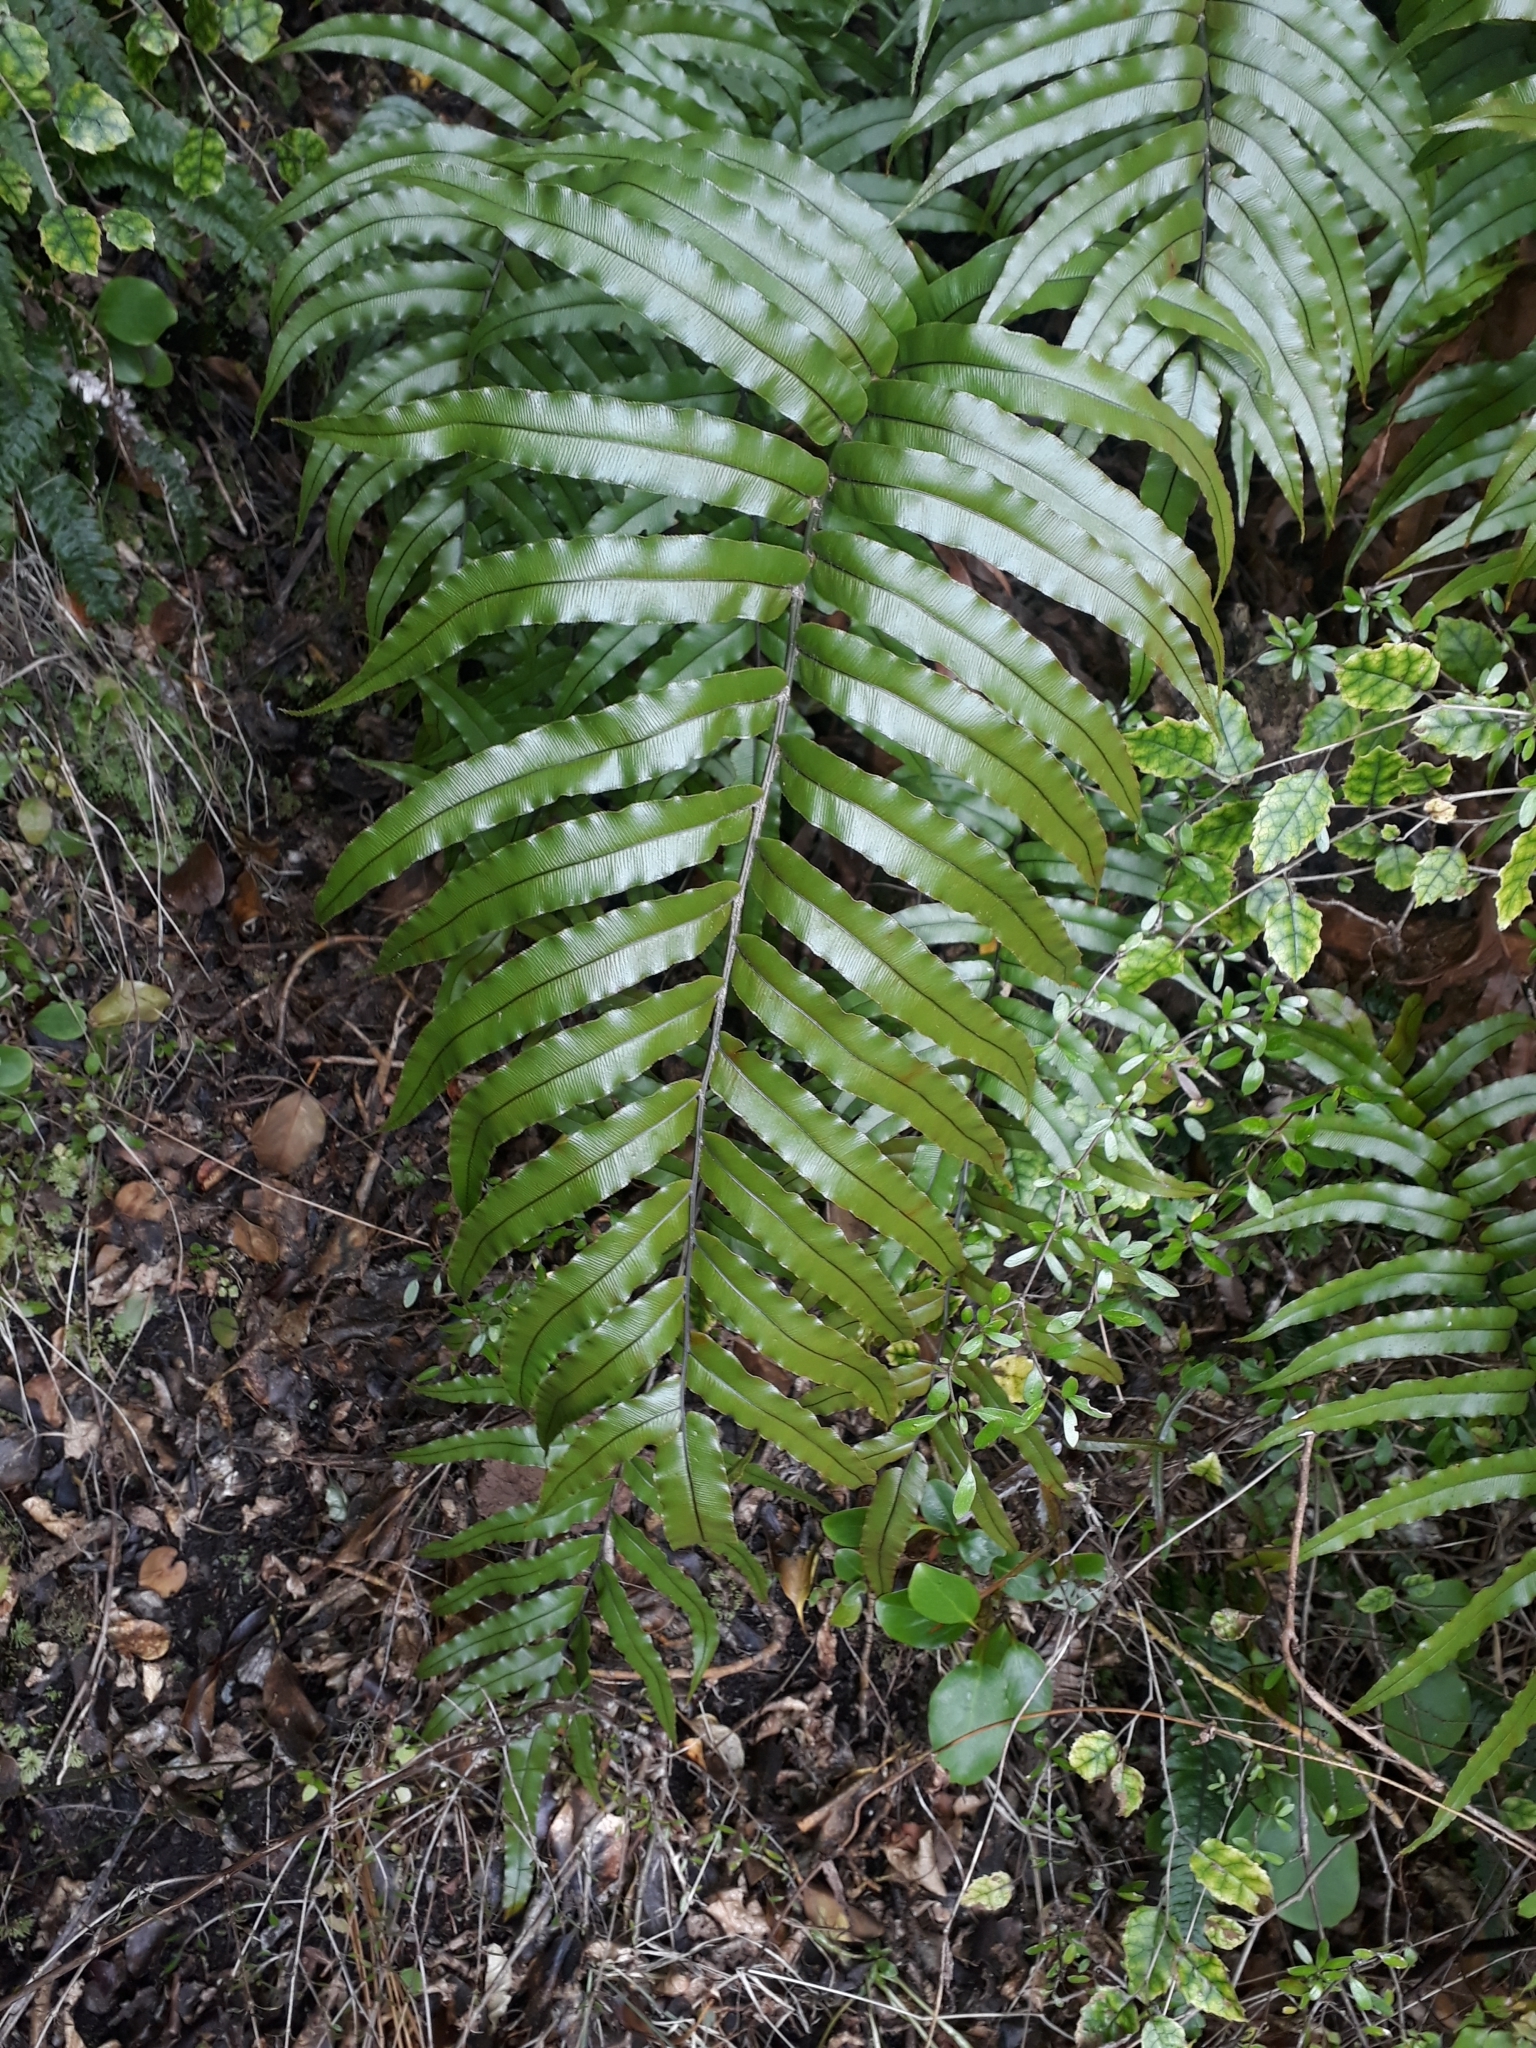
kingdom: Plantae
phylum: Tracheophyta
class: Polypodiopsida
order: Polypodiales
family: Blechnaceae
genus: Parablechnum
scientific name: Parablechnum montanum
